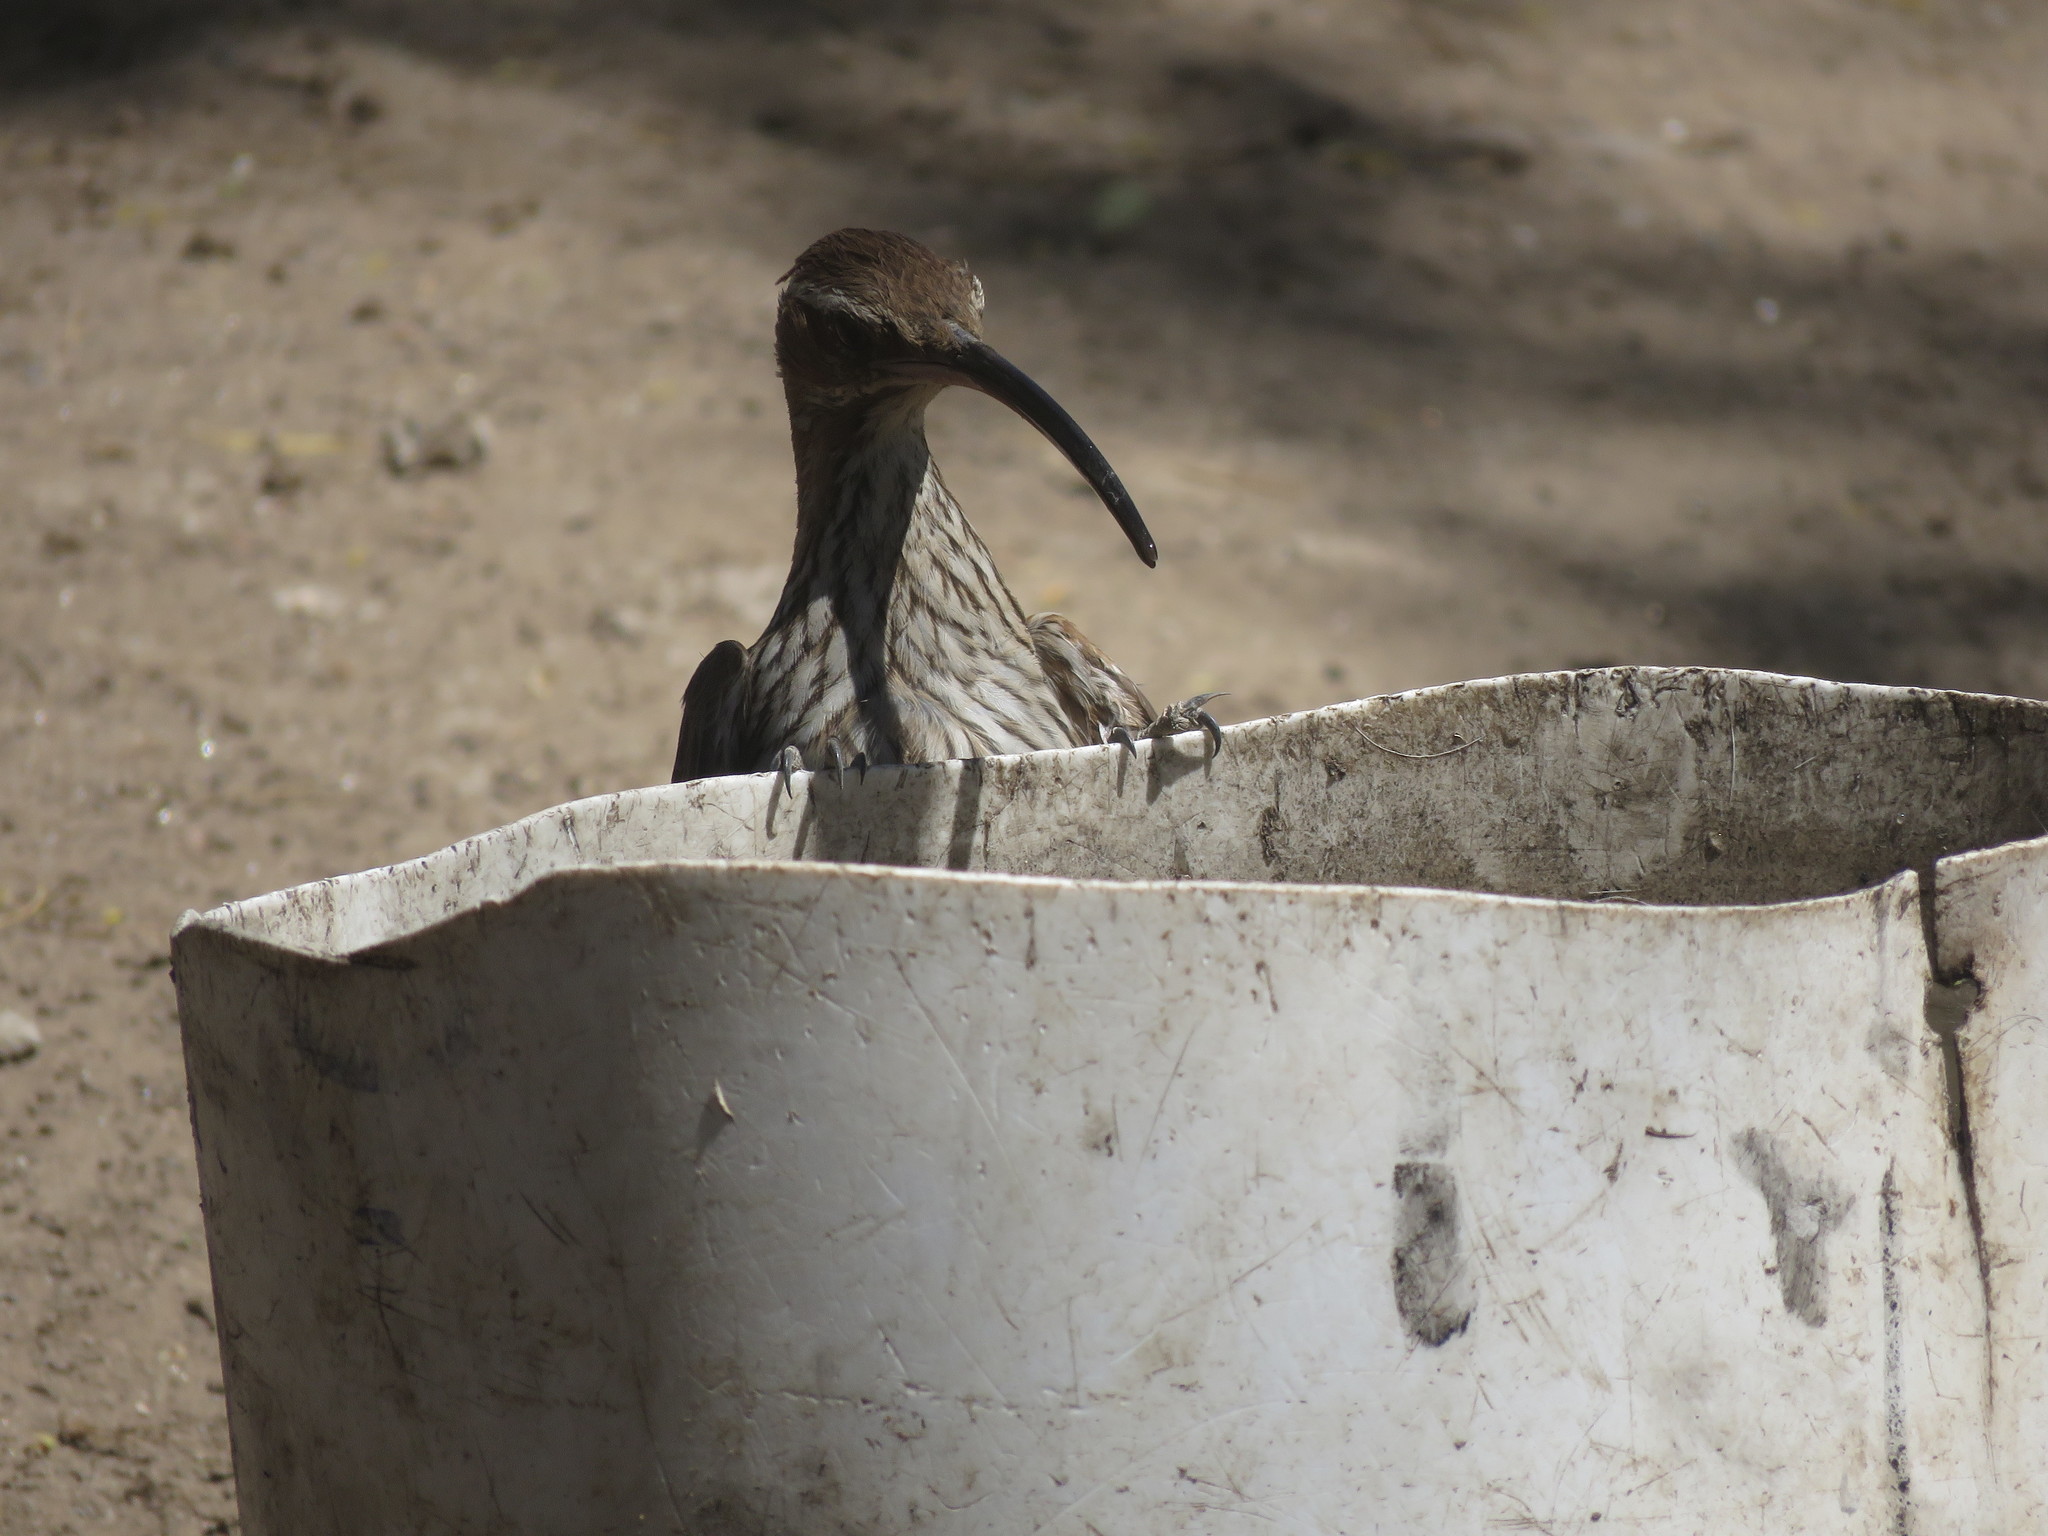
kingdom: Animalia
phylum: Chordata
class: Aves
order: Passeriformes
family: Furnariidae
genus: Drymornis
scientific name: Drymornis bridgesii
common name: Scimitar-billed woodcreeper
